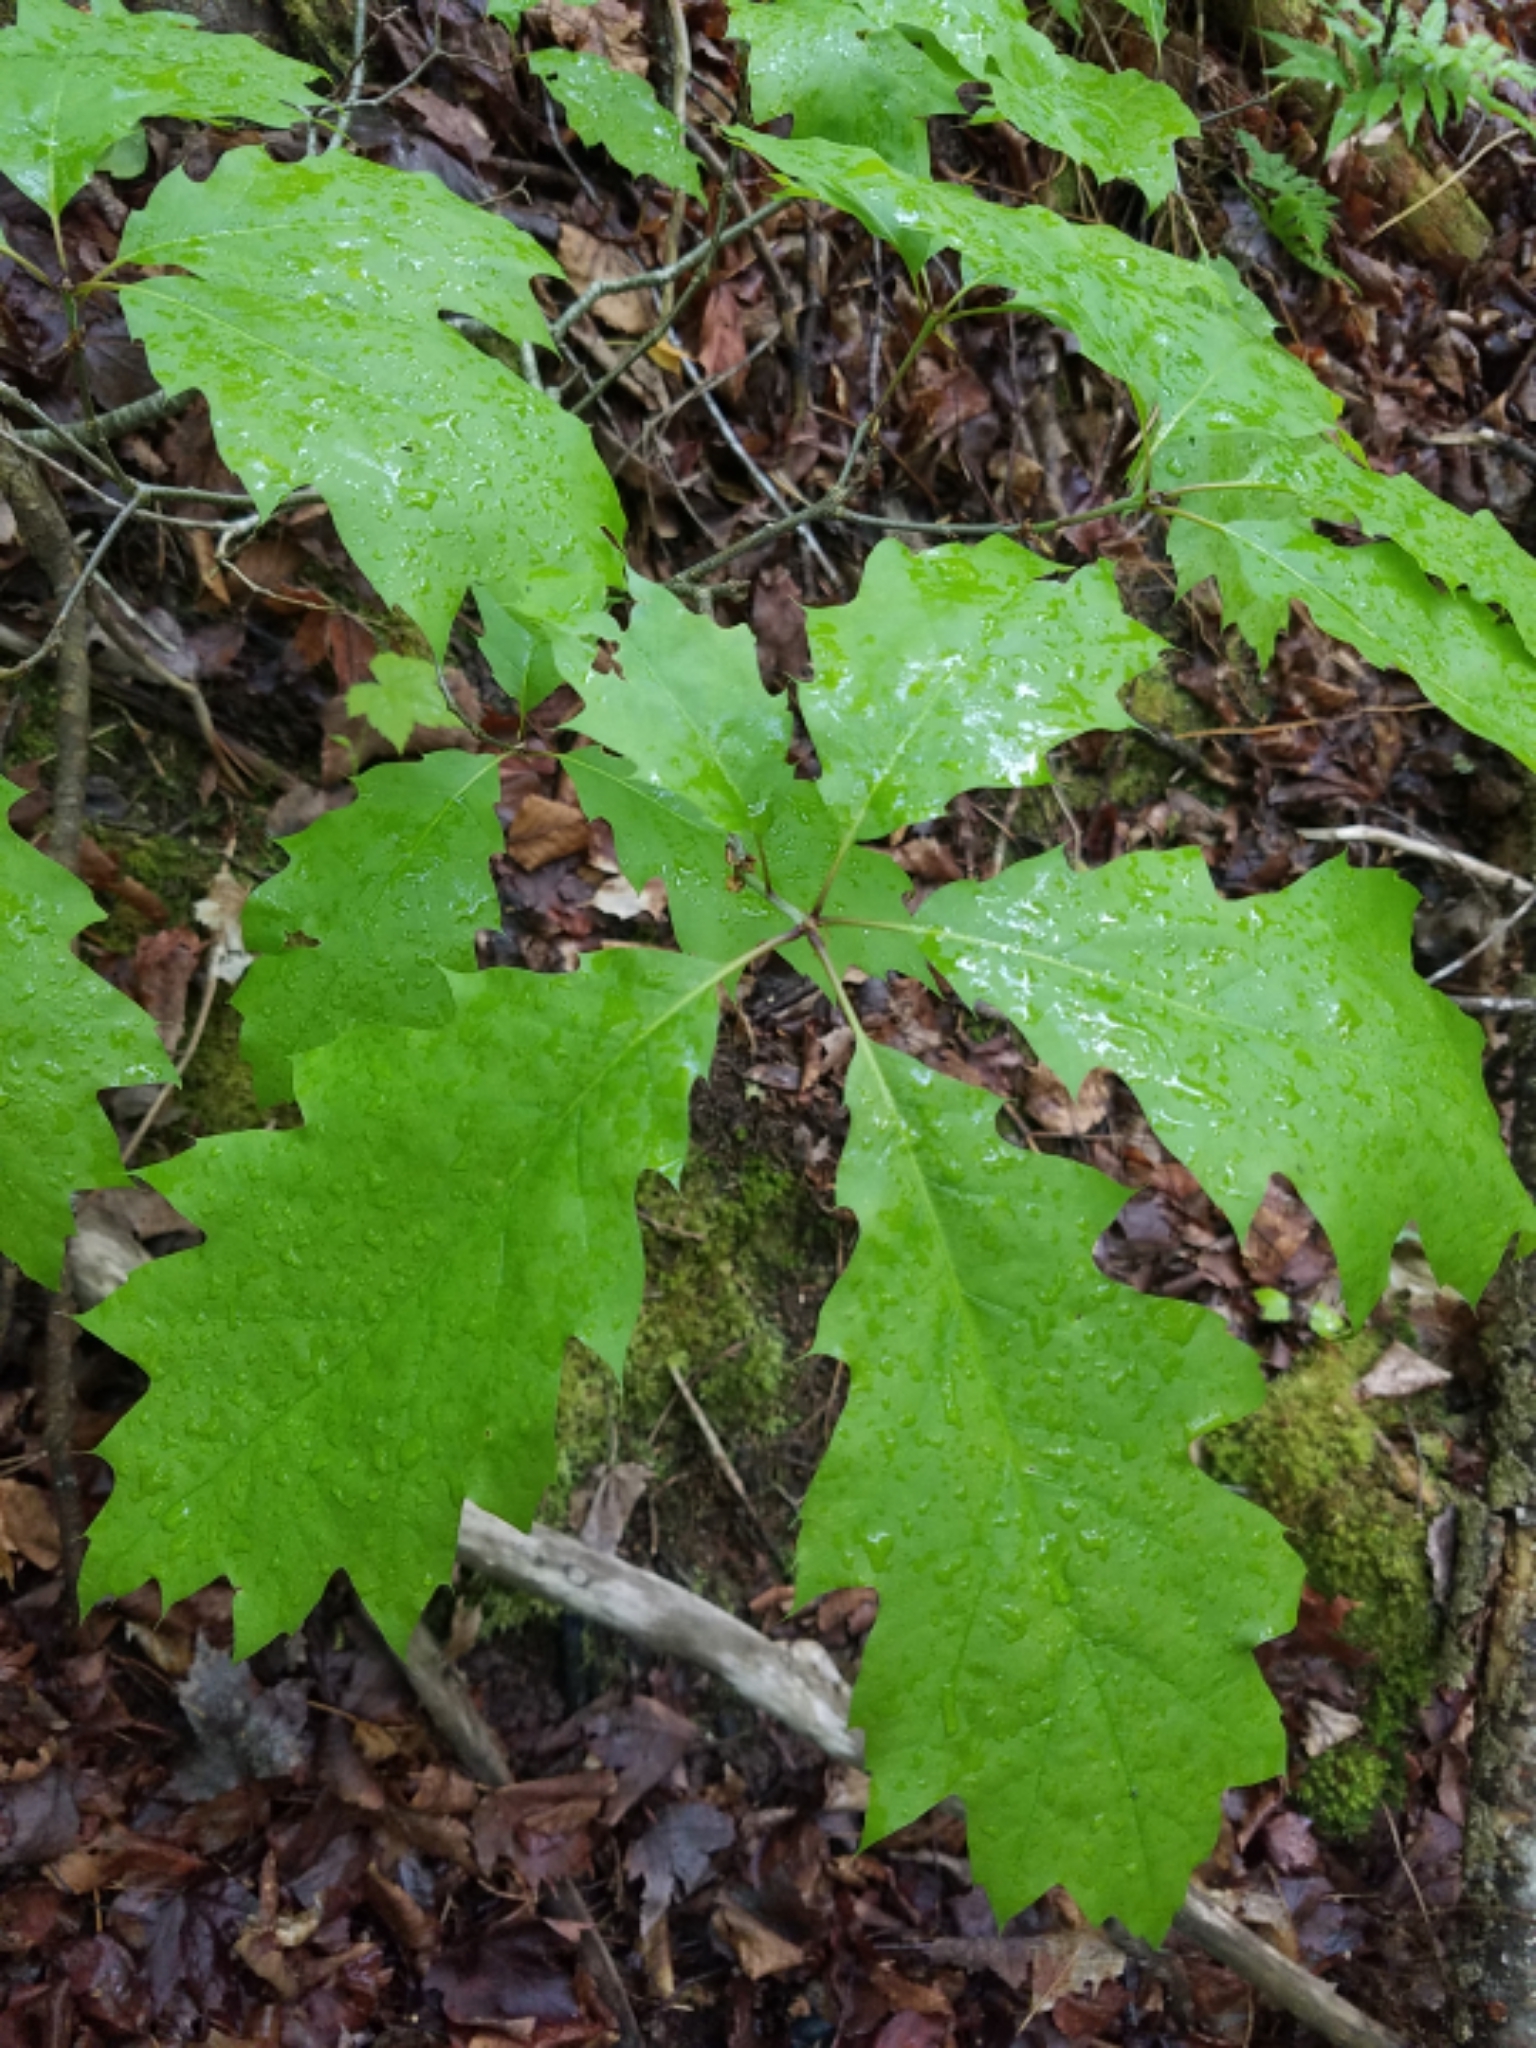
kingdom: Plantae
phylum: Tracheophyta
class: Magnoliopsida
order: Fagales
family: Fagaceae
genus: Quercus
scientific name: Quercus rubra
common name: Red oak
